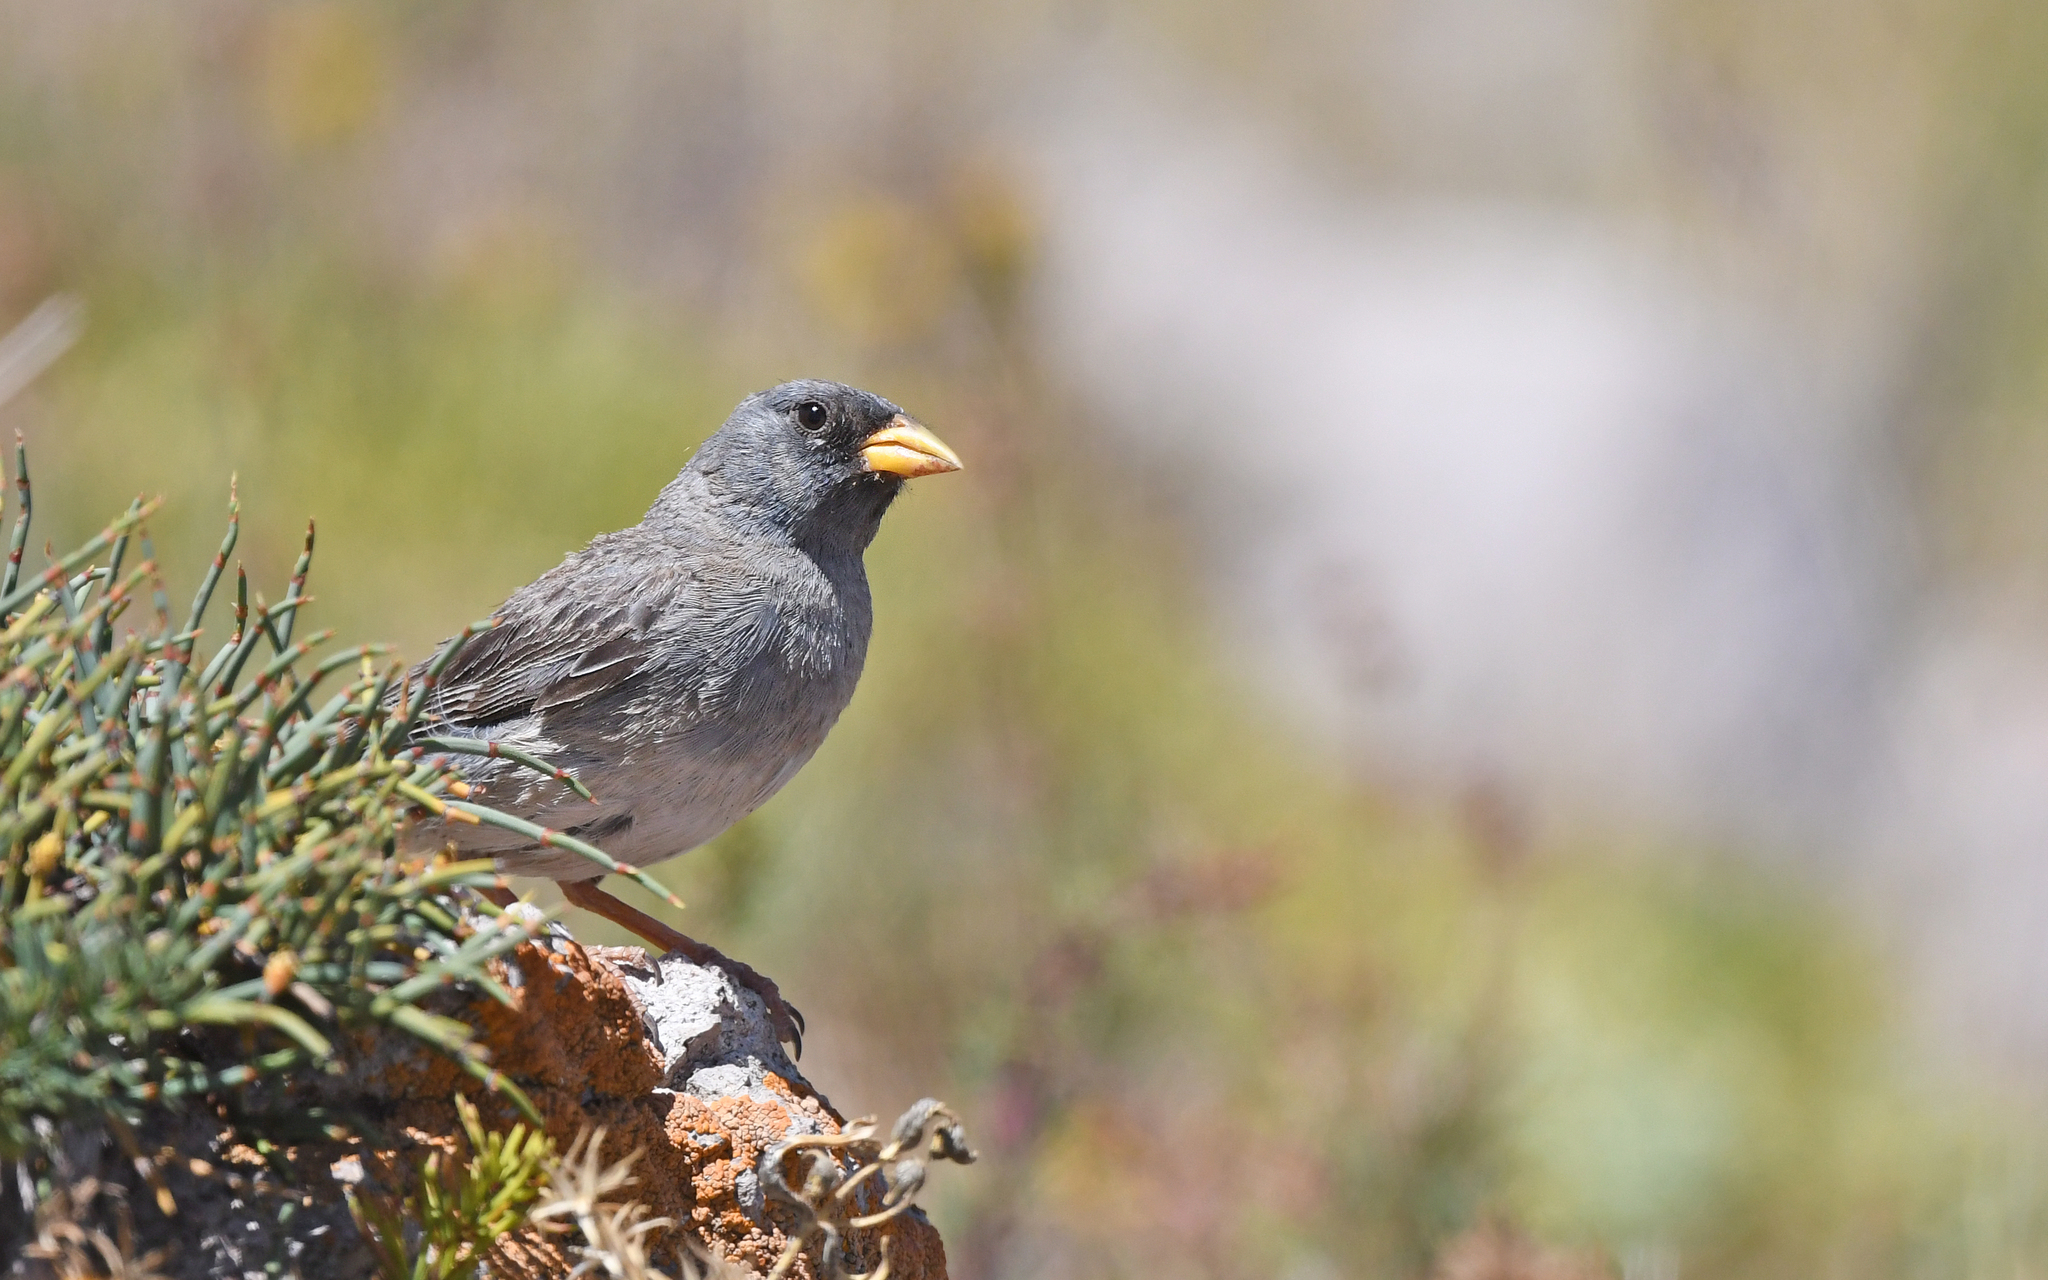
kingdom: Animalia
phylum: Chordata
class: Aves
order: Passeriformes
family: Thraupidae
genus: Porphyrospiza
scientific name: Porphyrospiza alaudina
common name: Band-tailed sierra finch
